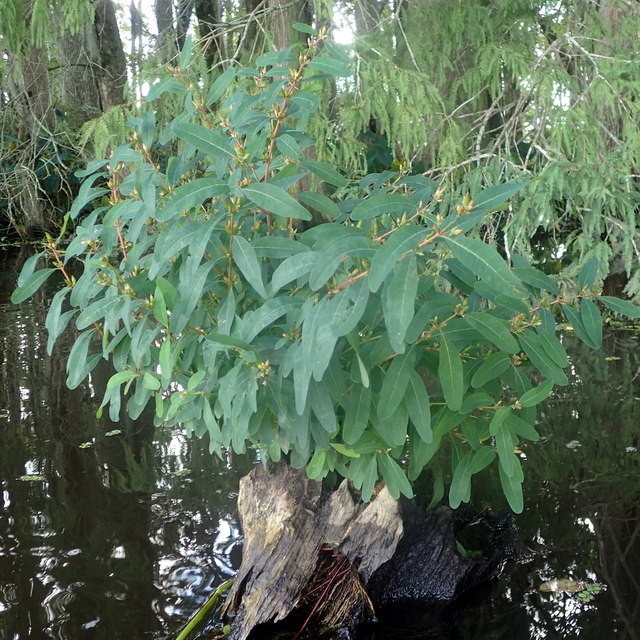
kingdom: Plantae
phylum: Tracheophyta
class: Magnoliopsida
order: Malpighiales
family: Hypericaceae
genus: Triadenum
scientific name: Triadenum walteri
